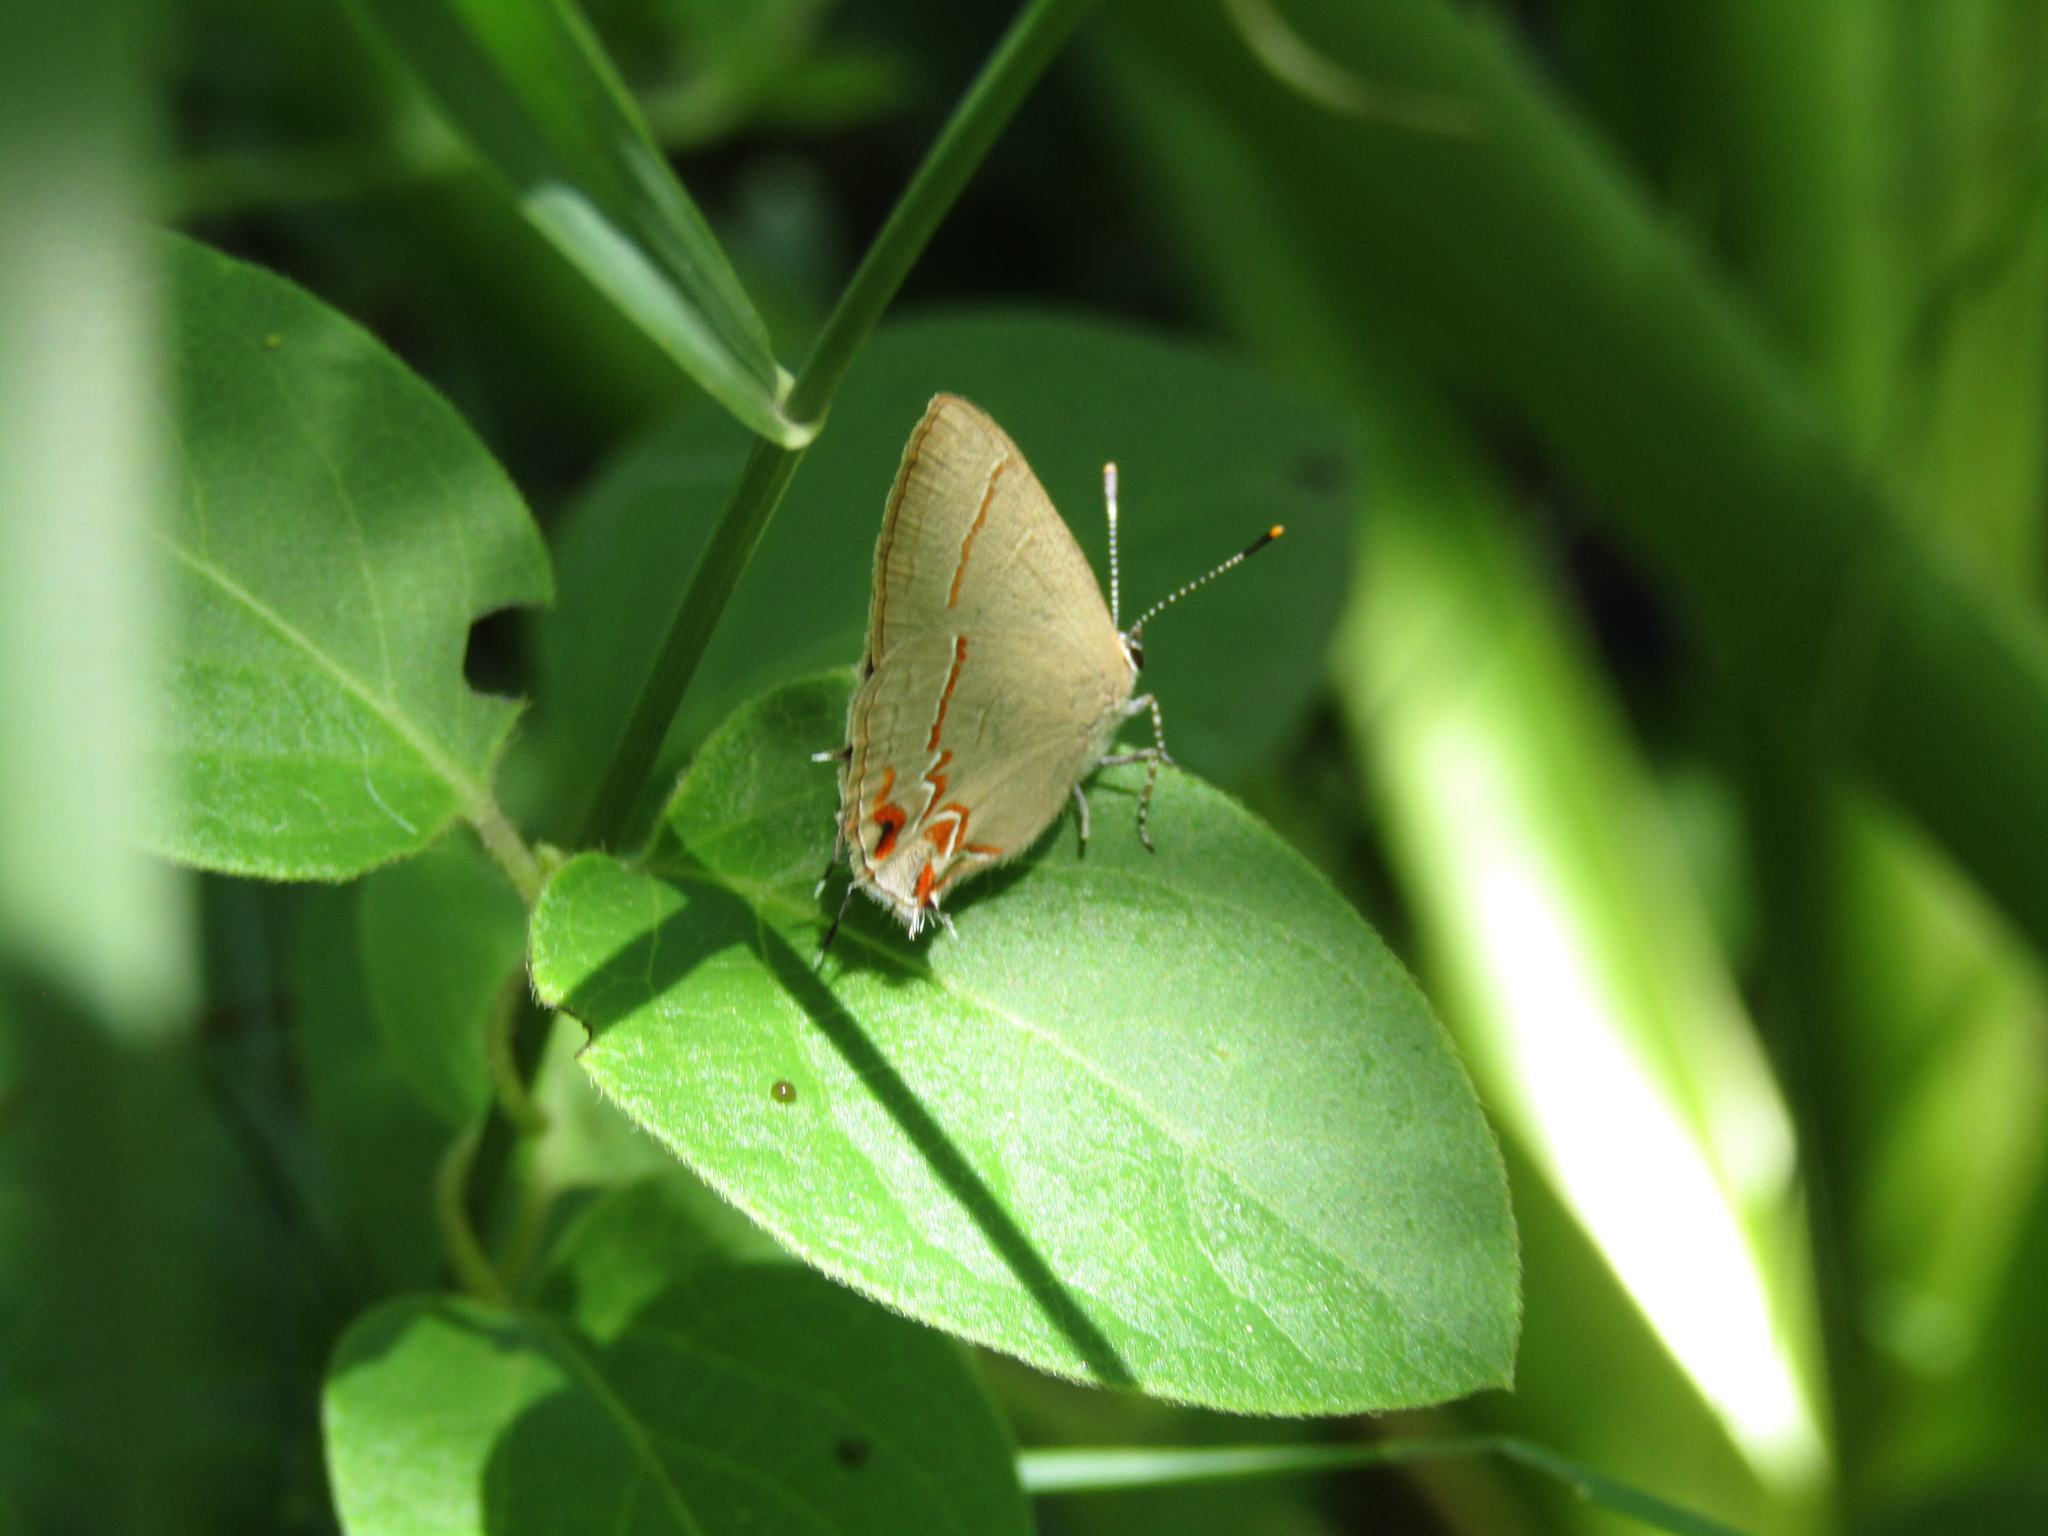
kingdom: Animalia
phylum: Arthropoda
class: Insecta
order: Lepidoptera
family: Lycaenidae
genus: Calycopis
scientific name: Calycopis caulonia
